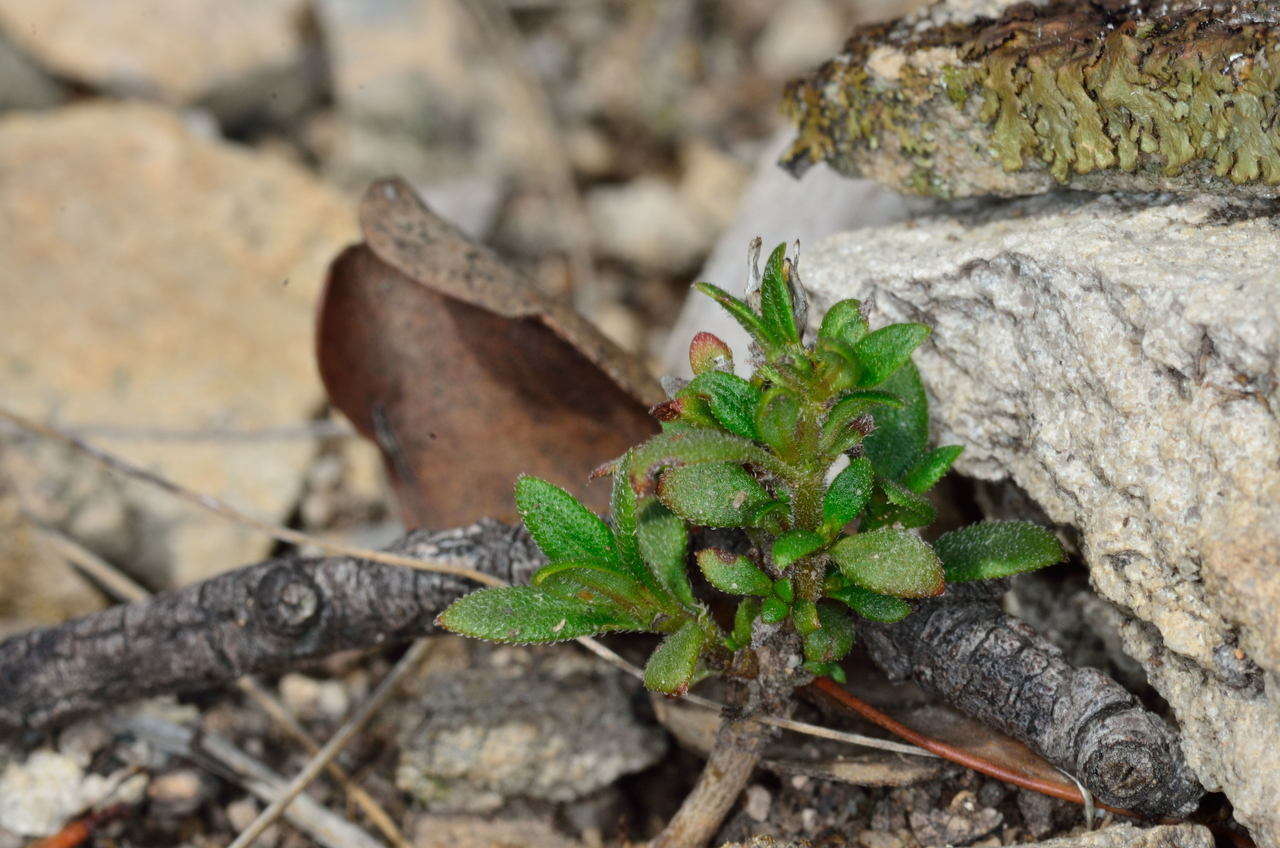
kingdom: Plantae
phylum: Tracheophyta
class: Magnoliopsida
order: Gentianales
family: Rubiaceae
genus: Pomax
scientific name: Pomax umbellata
